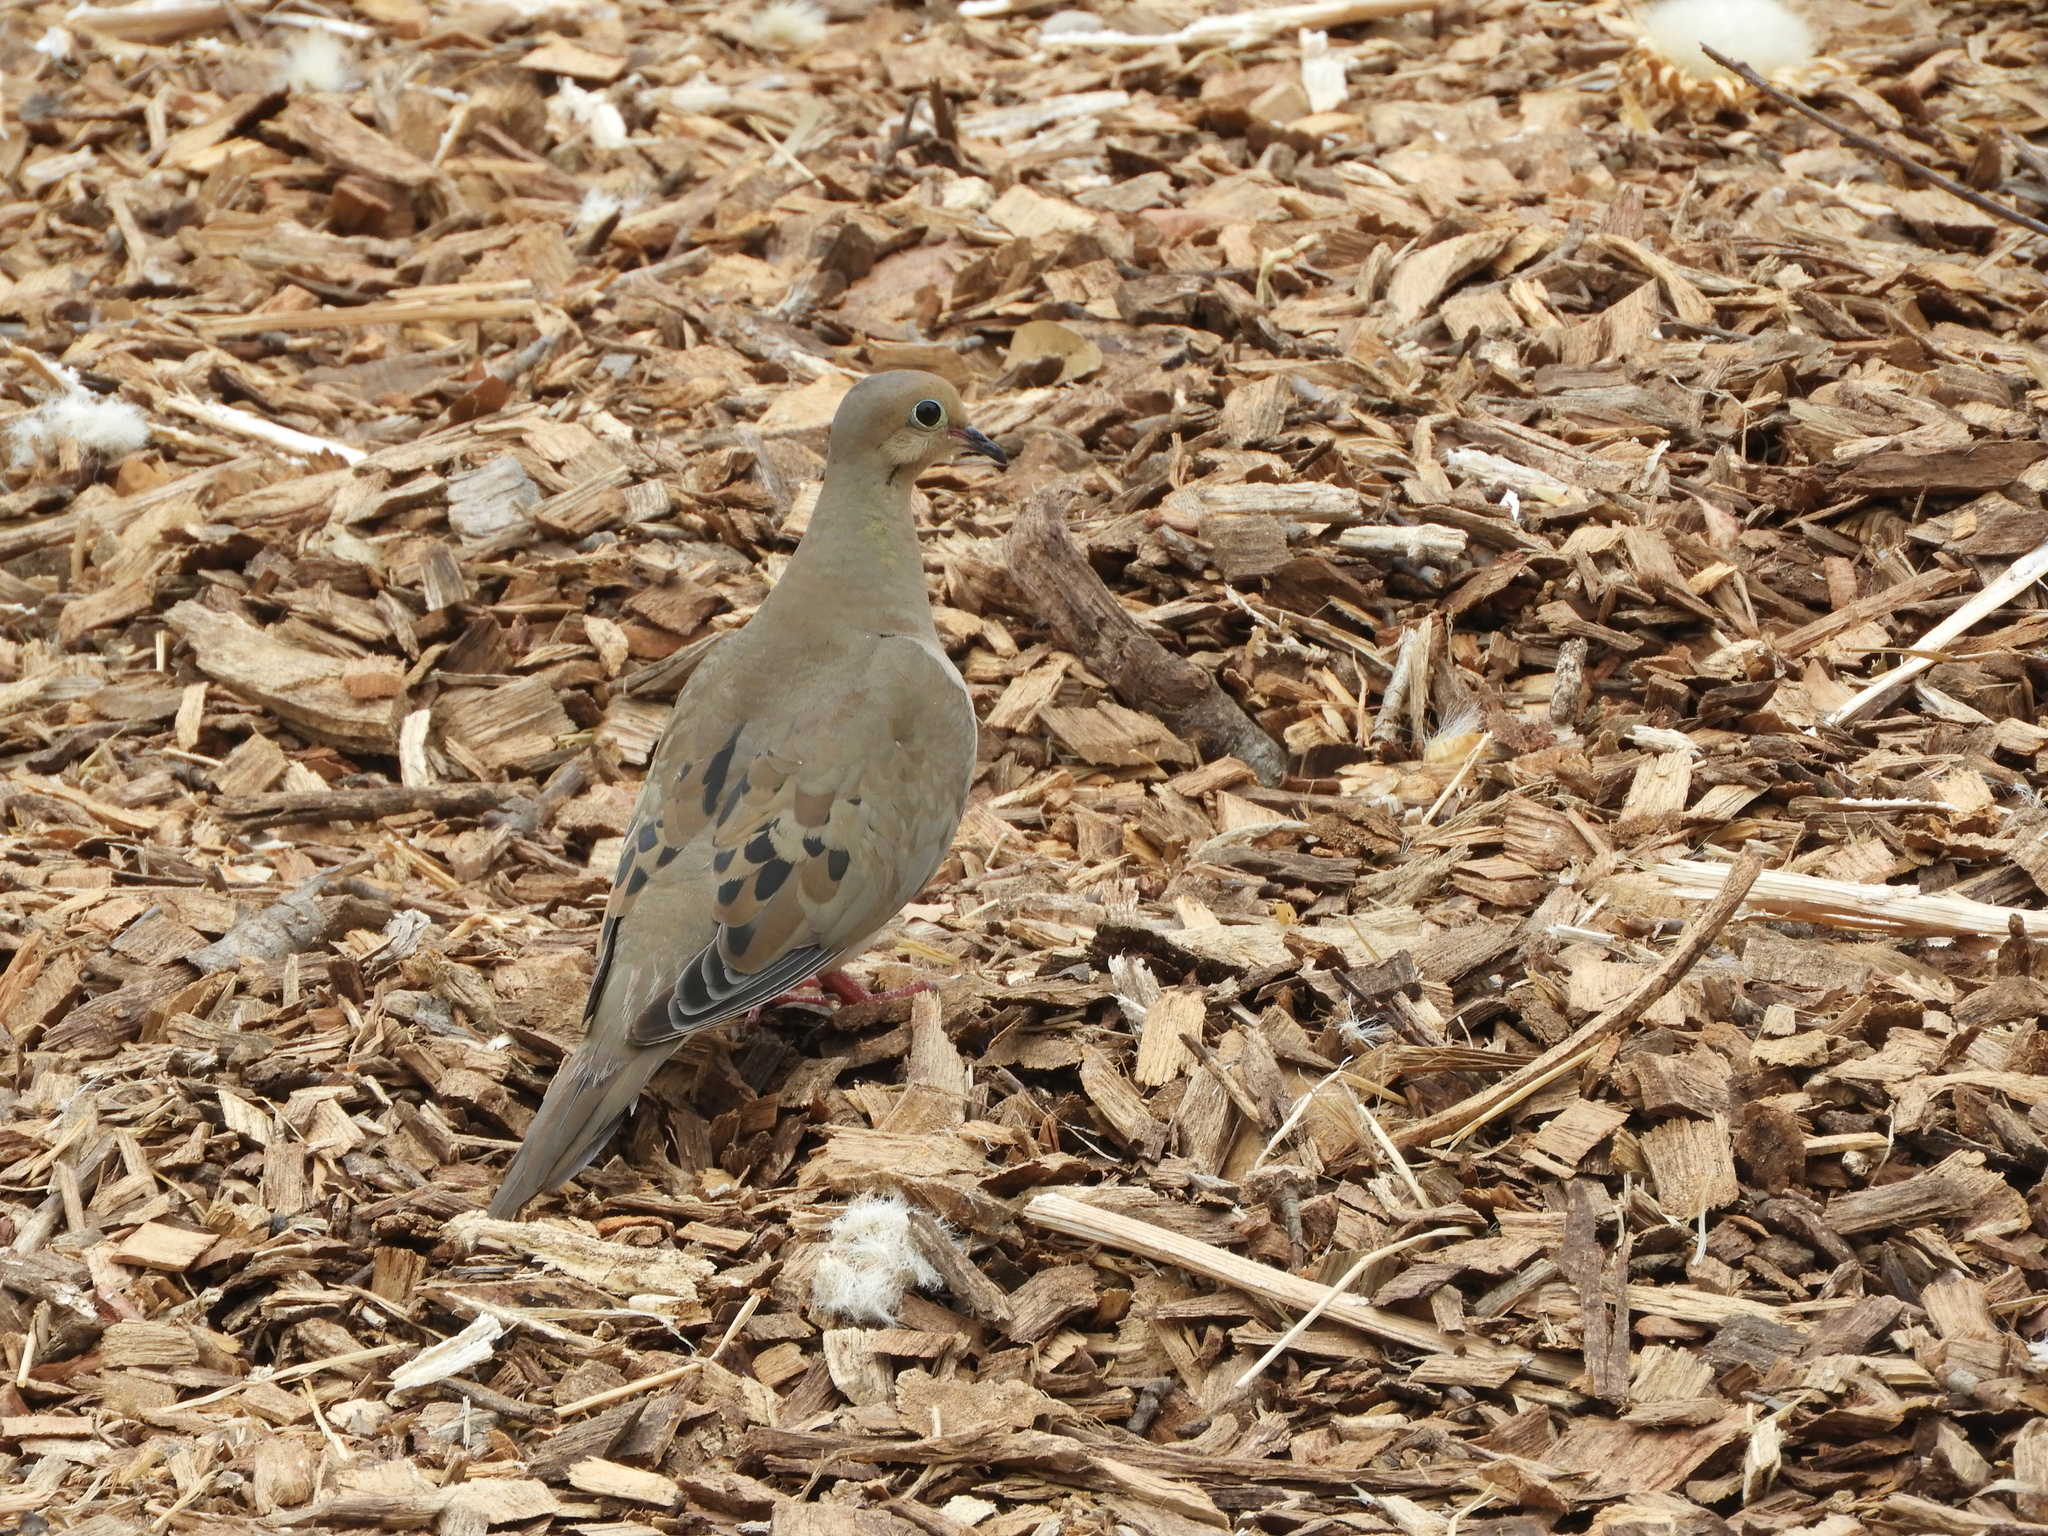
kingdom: Animalia
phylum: Chordata
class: Aves
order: Columbiformes
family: Columbidae
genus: Zenaida
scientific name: Zenaida macroura
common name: Mourning dove
